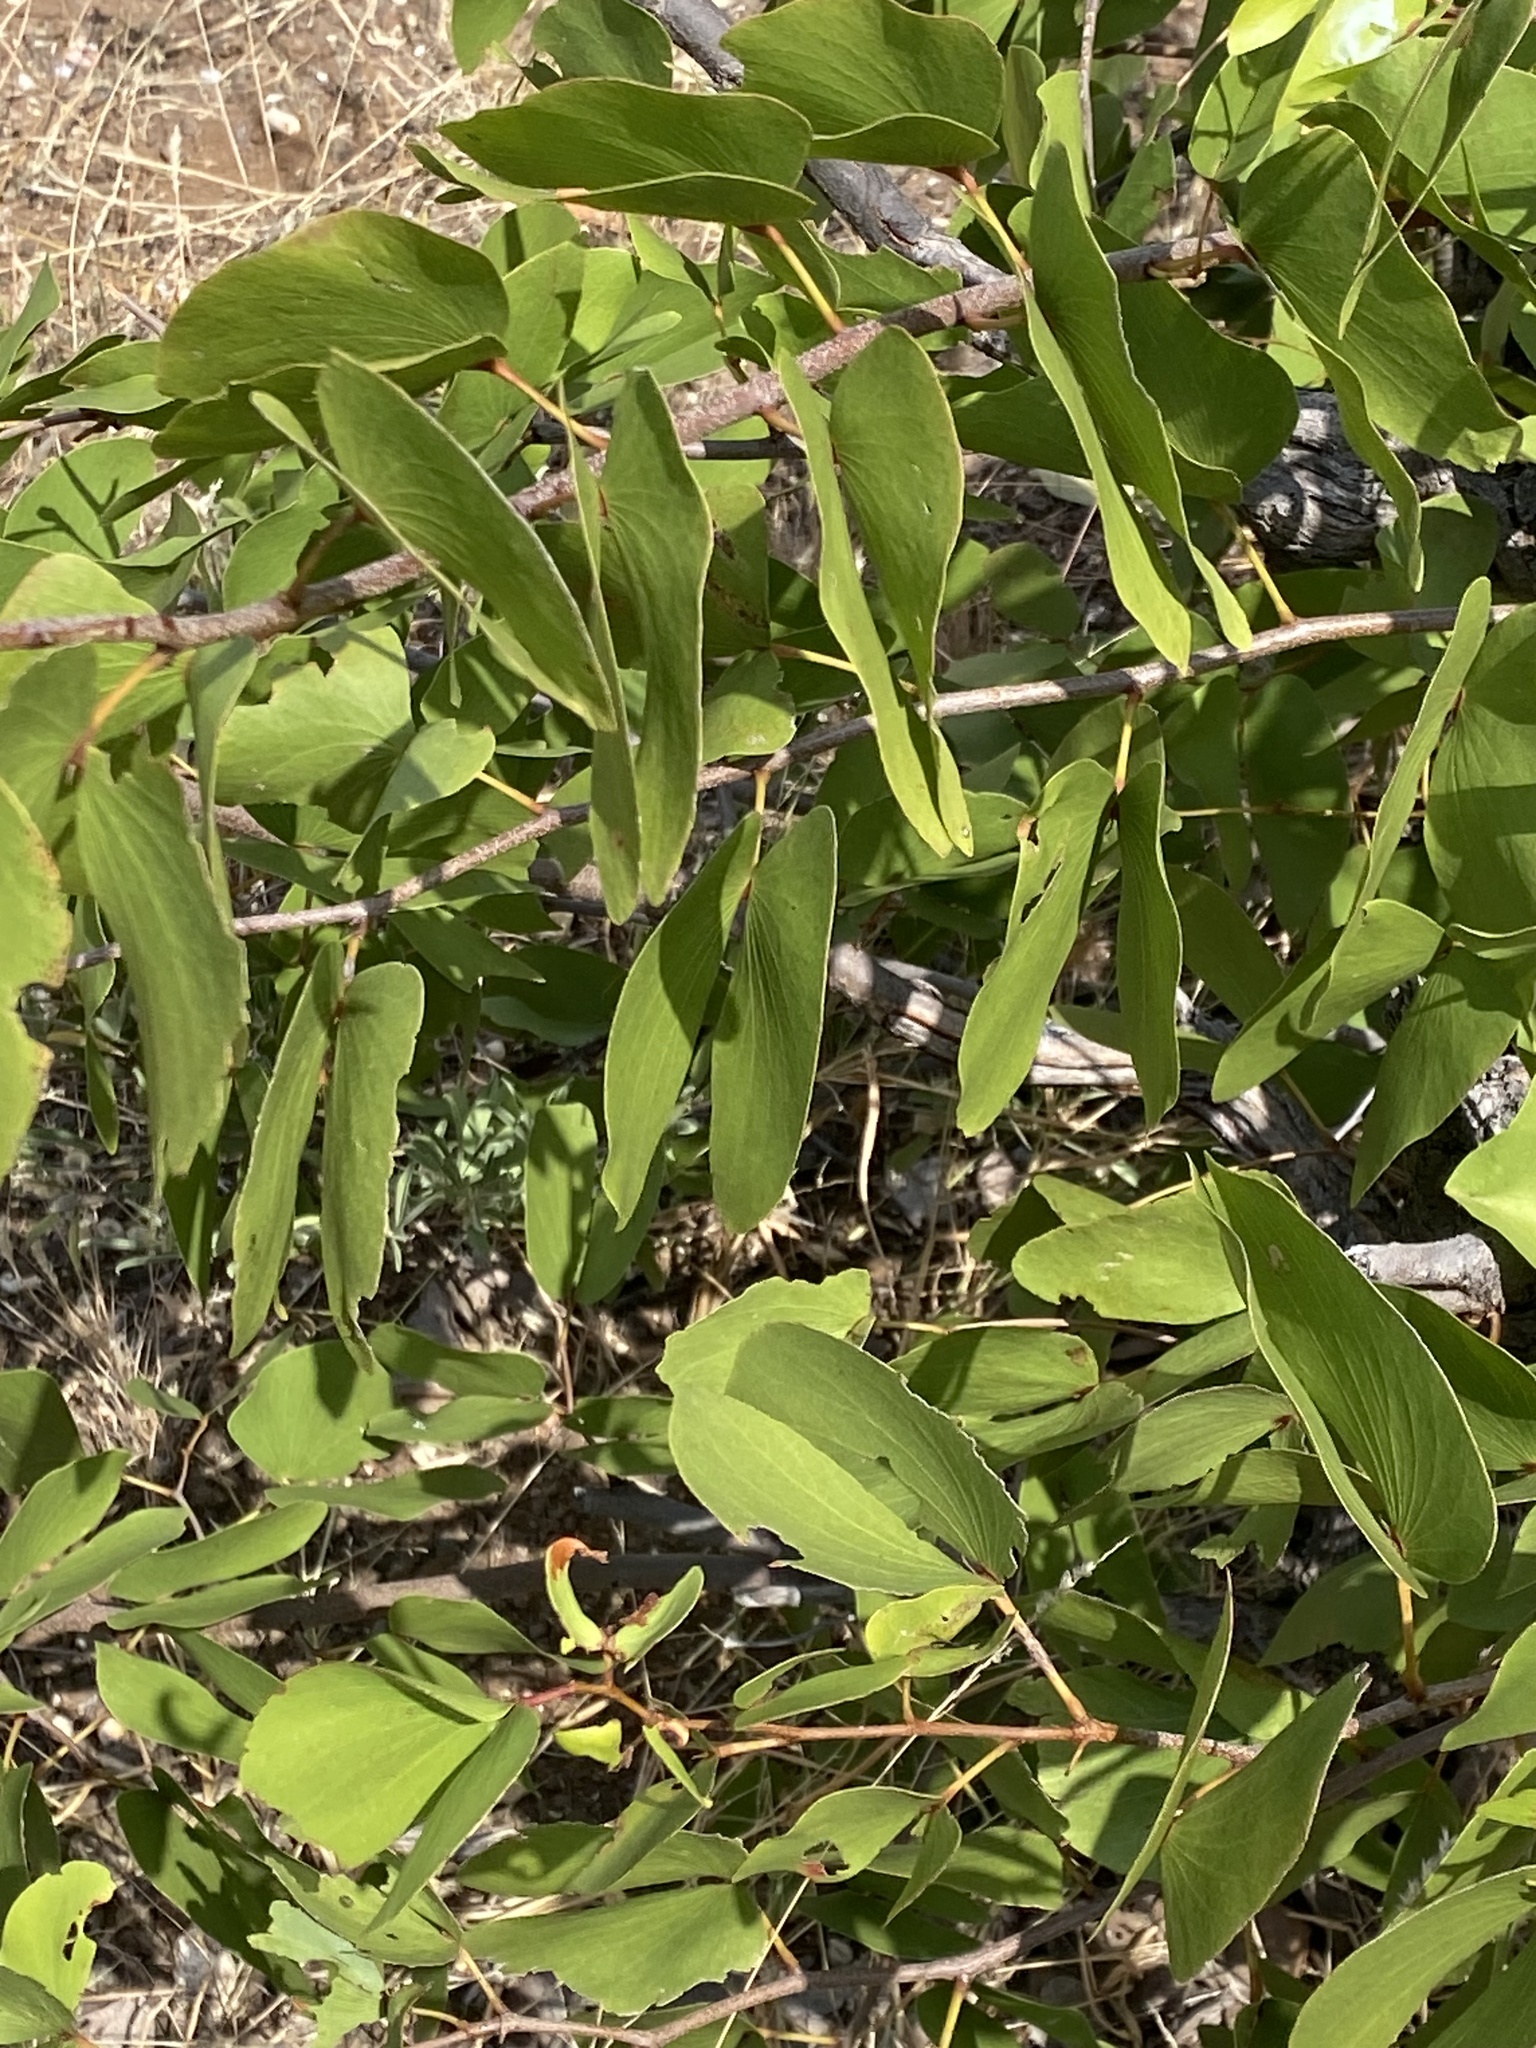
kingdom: Plantae
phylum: Tracheophyta
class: Magnoliopsida
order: Fabales
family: Fabaceae
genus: Colophospermum
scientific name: Colophospermum mopane
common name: Mopane
